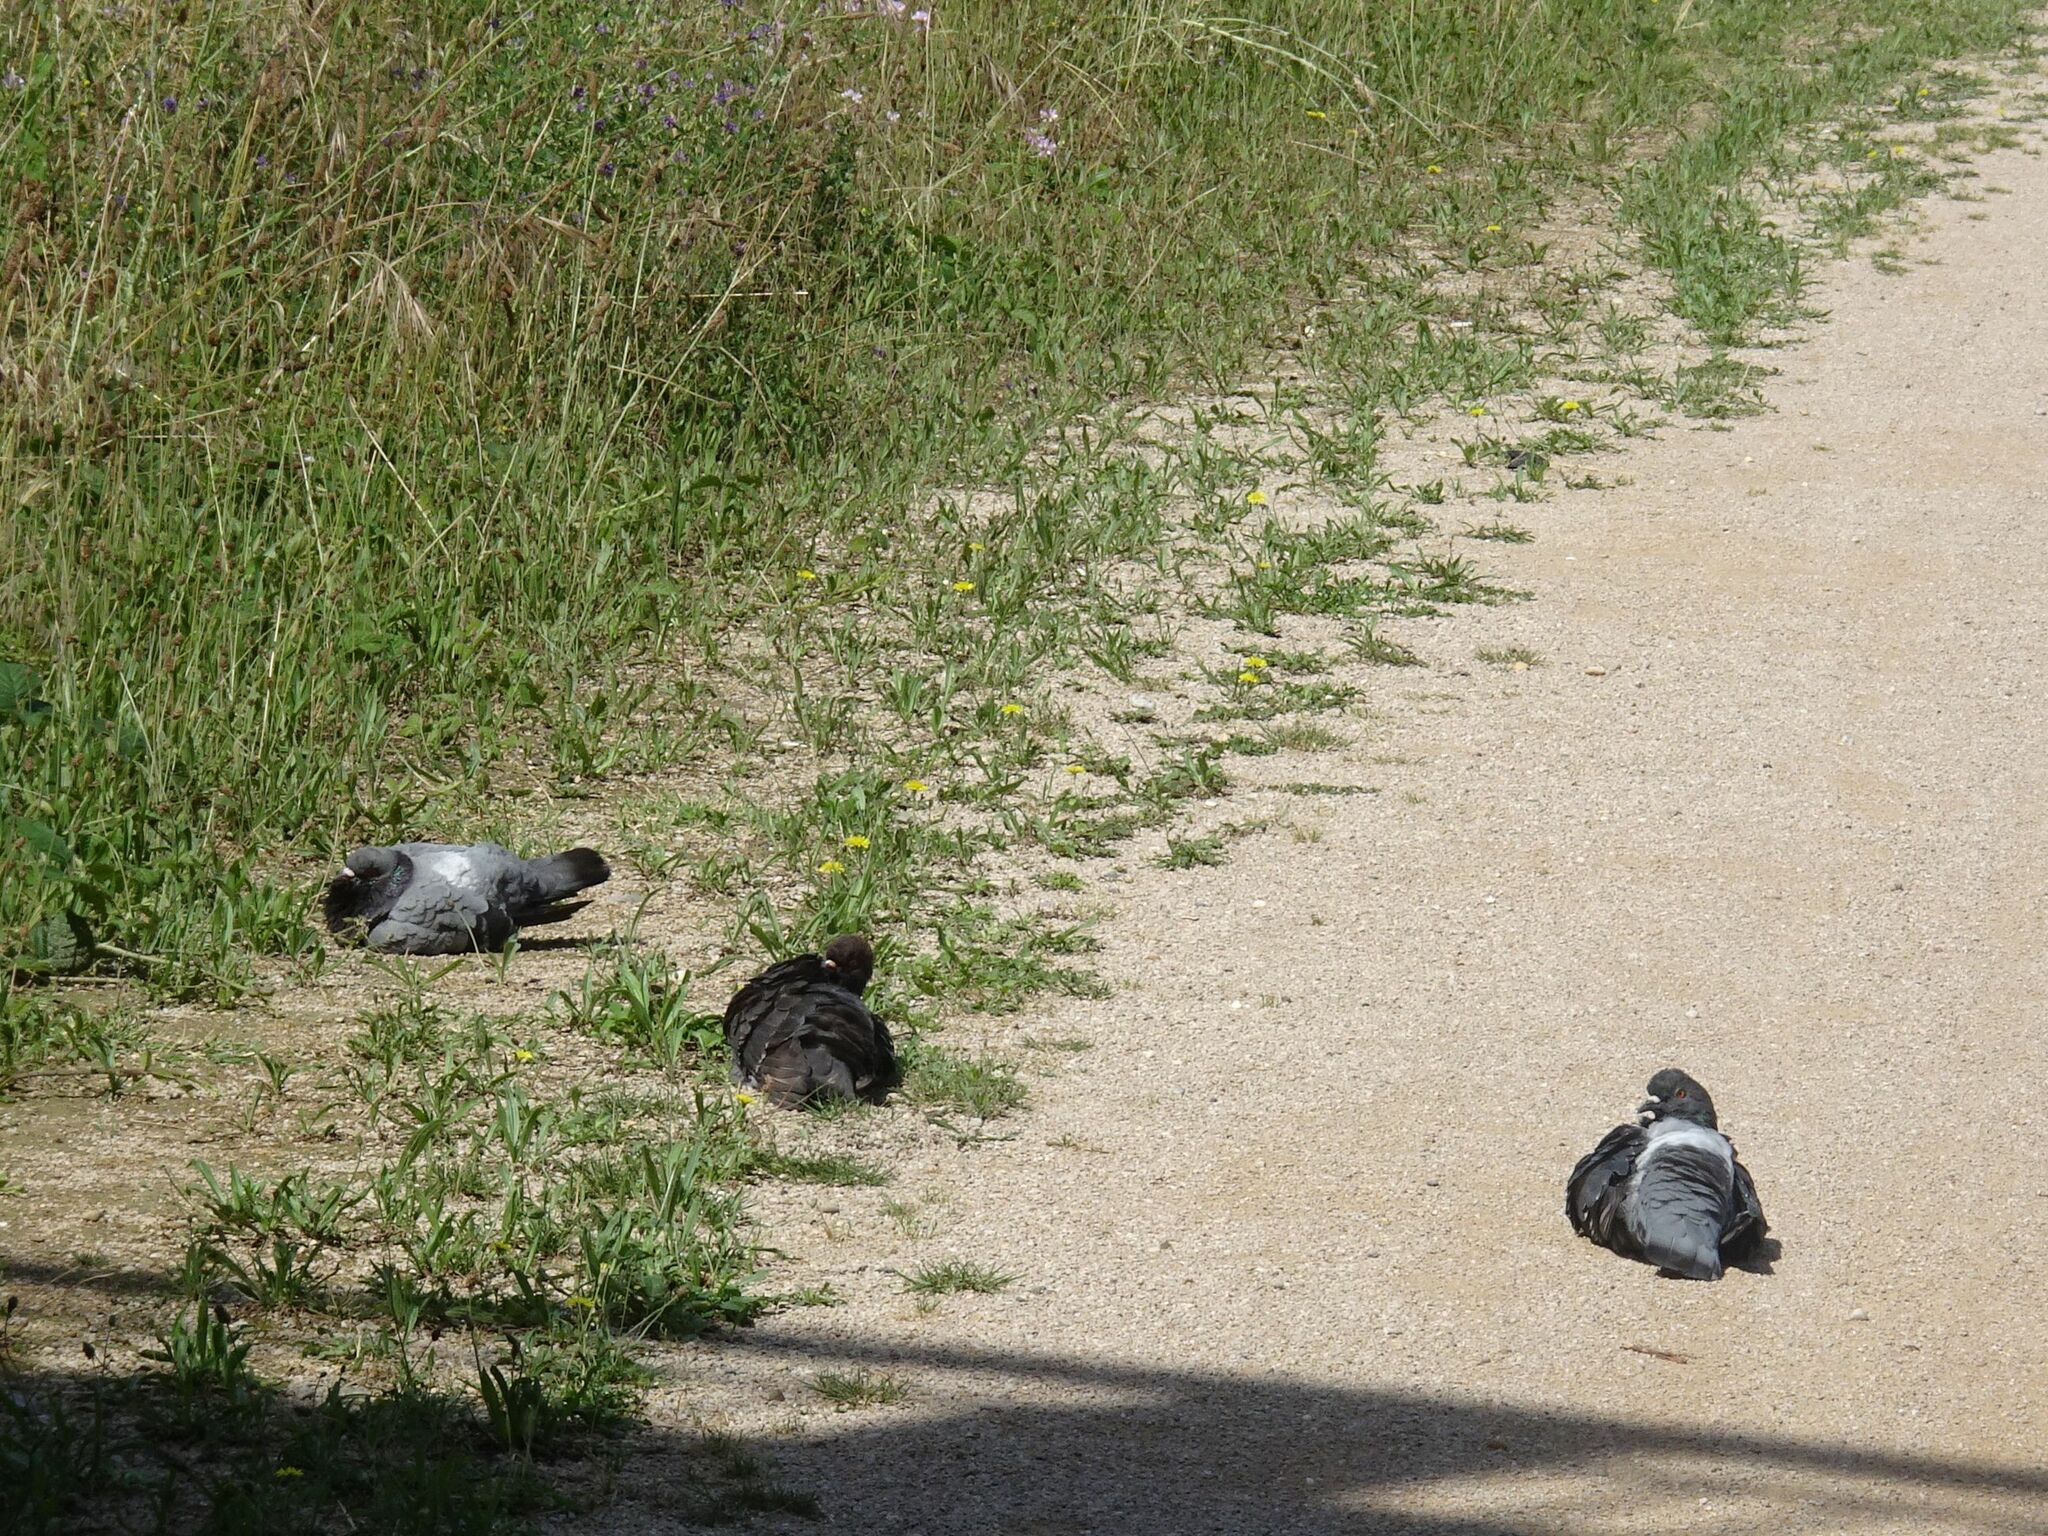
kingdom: Animalia
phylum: Chordata
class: Aves
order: Columbiformes
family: Columbidae
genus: Columba
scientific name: Columba livia
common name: Rock pigeon
